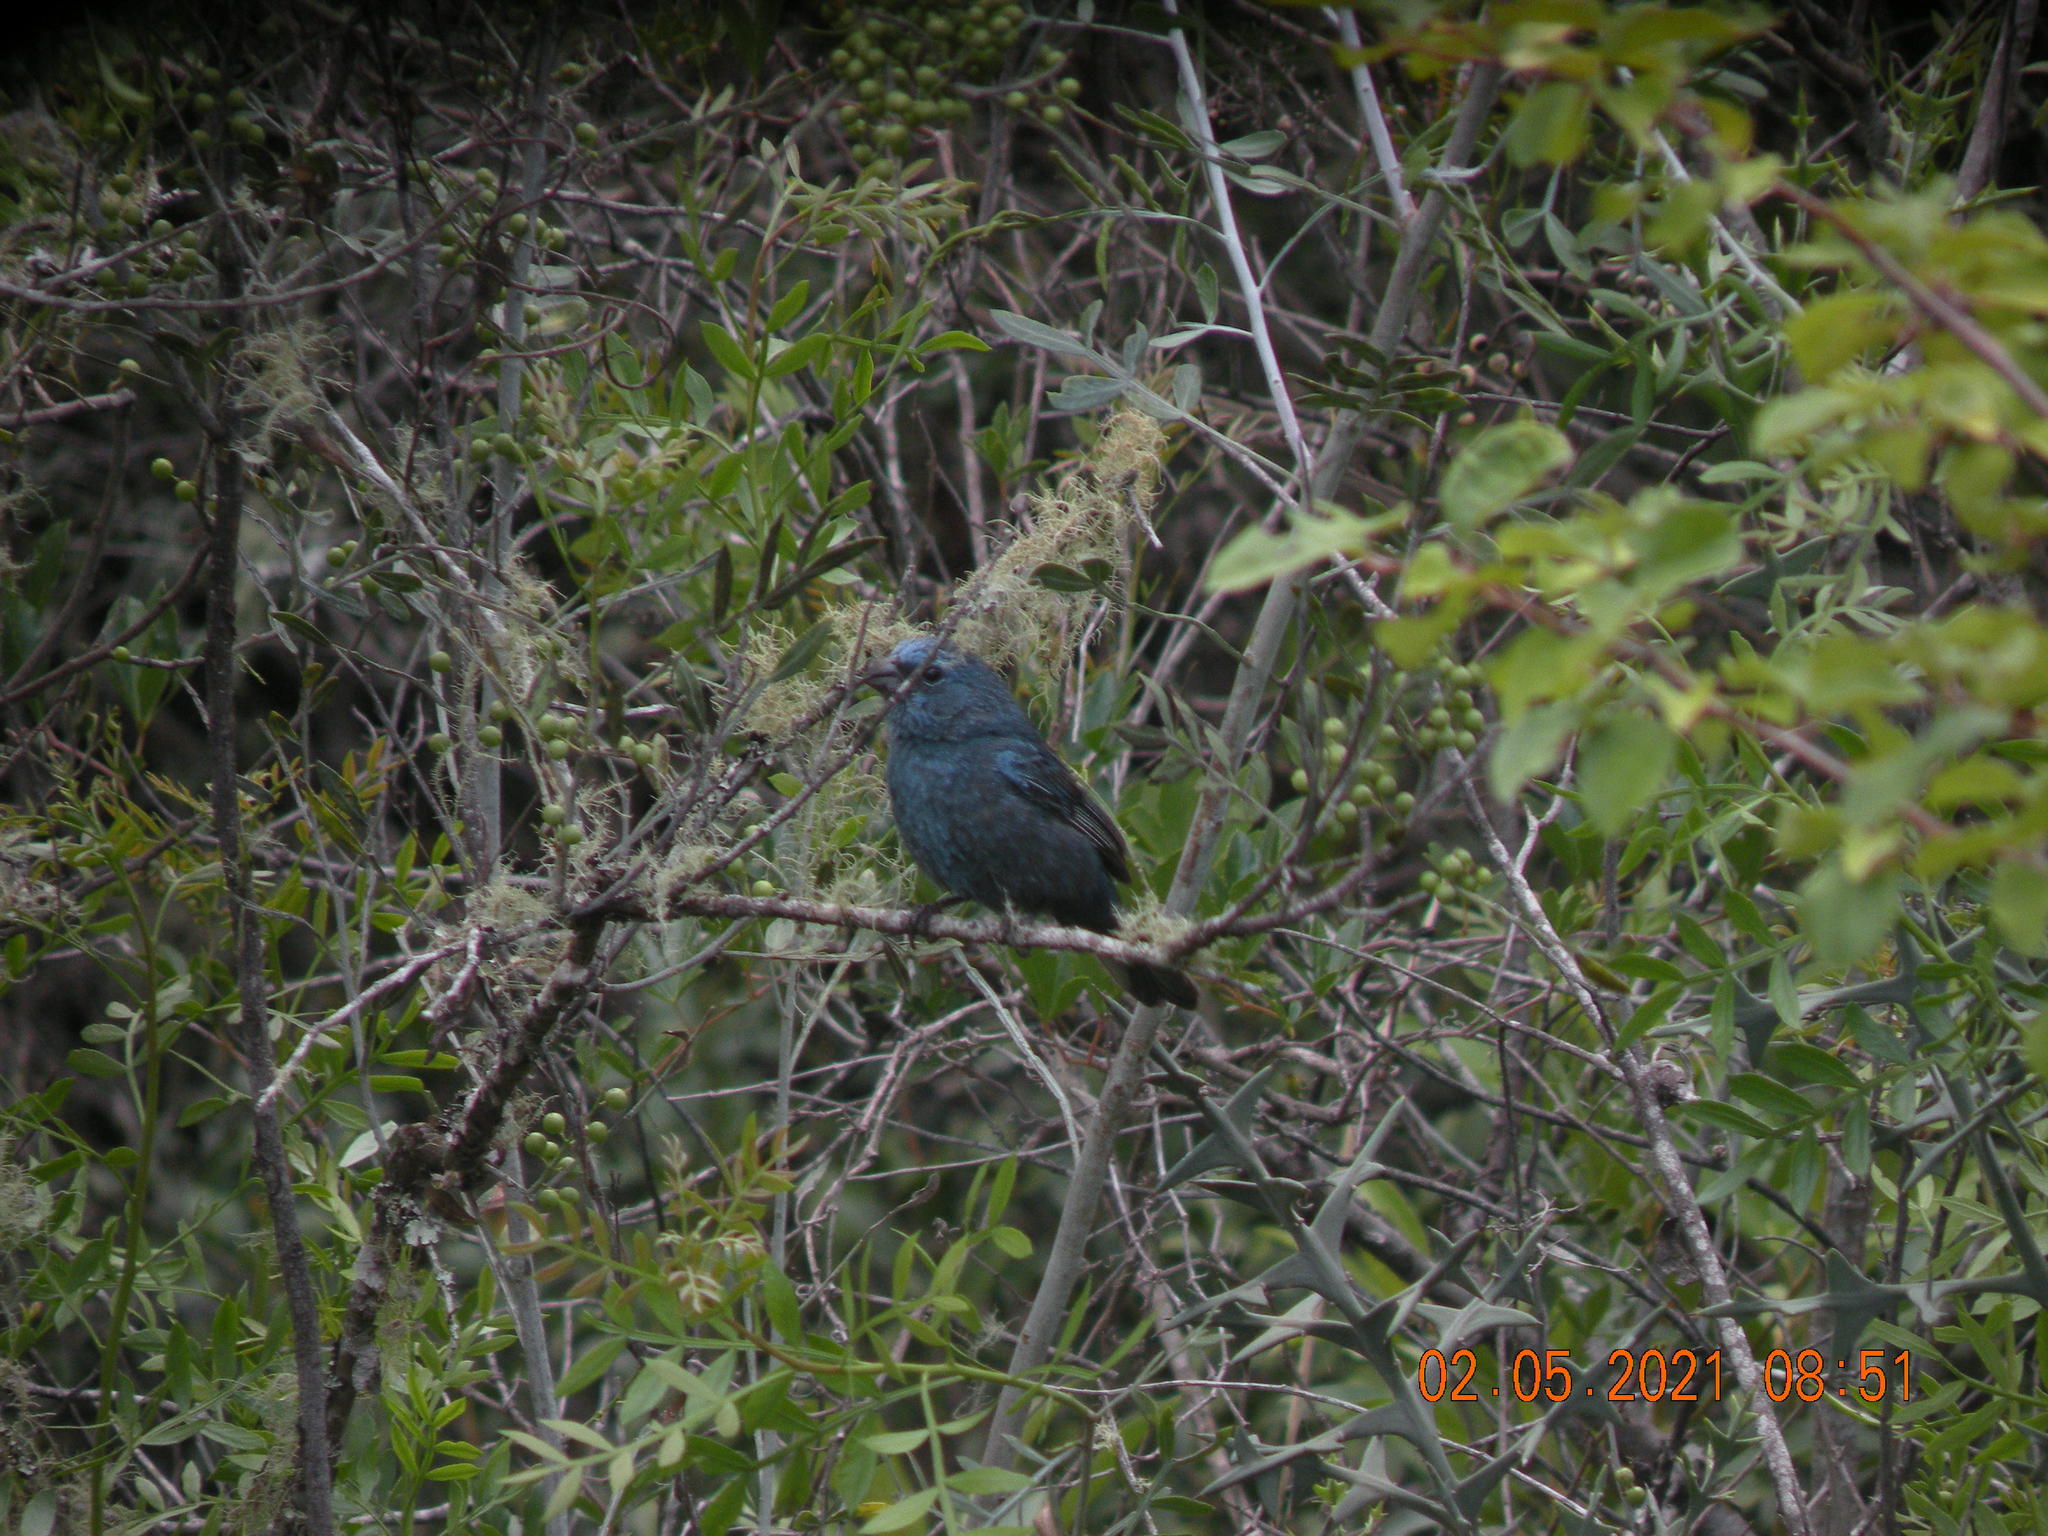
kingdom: Animalia
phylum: Chordata
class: Aves
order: Passeriformes
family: Cardinalidae
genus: Cyanoloxia
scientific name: Cyanoloxia glaucocaerulea
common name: Glaucous-blue grosbeak
